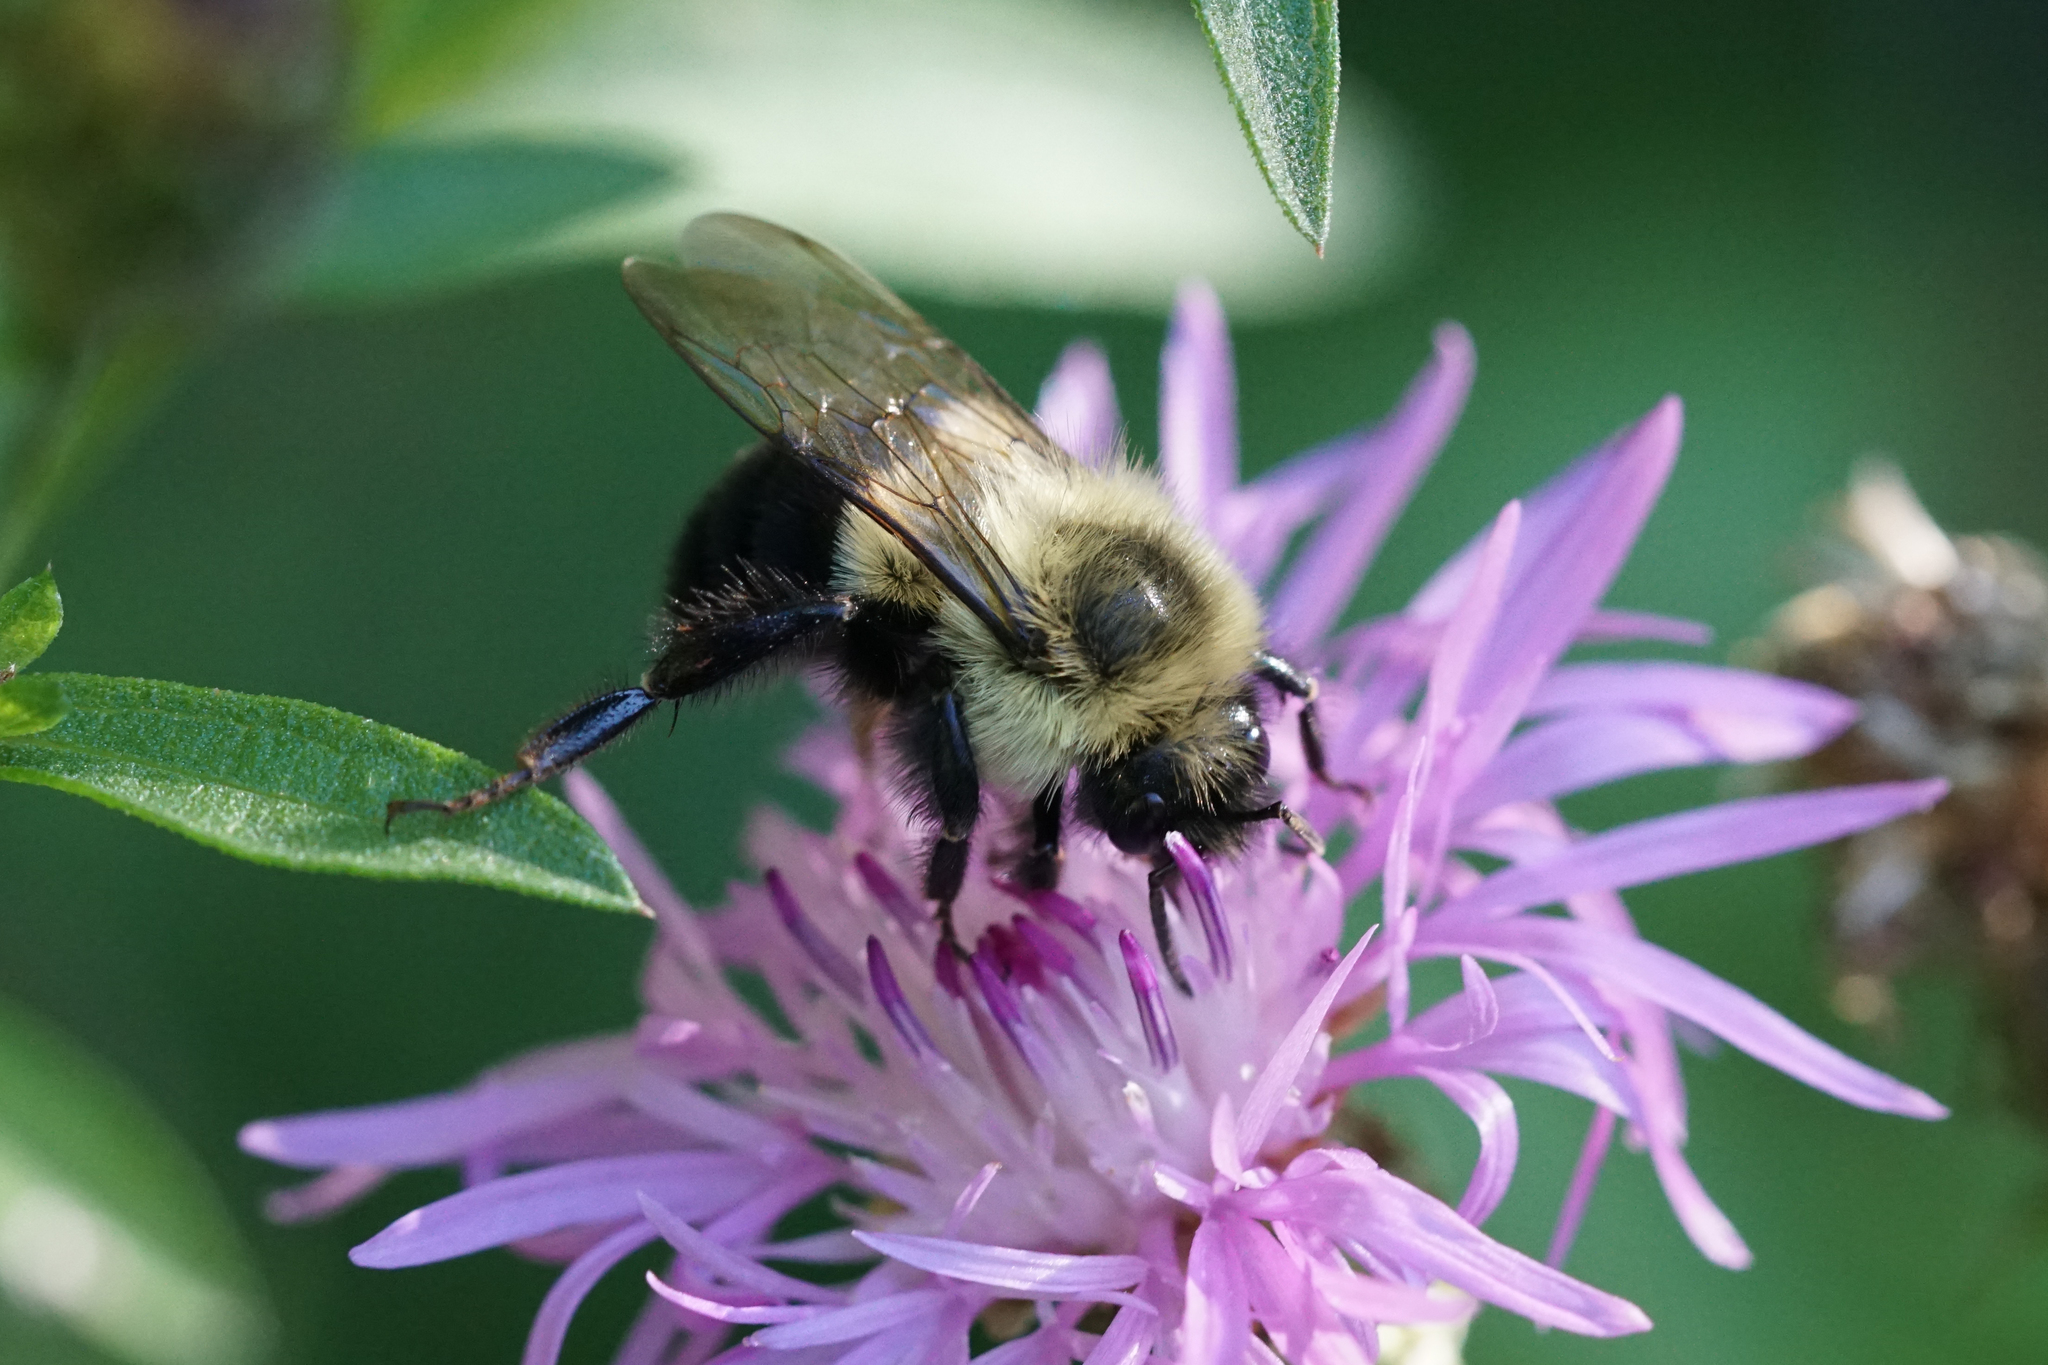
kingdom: Animalia
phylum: Arthropoda
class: Insecta
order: Hymenoptera
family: Apidae
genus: Bombus
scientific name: Bombus impatiens
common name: Common eastern bumble bee
